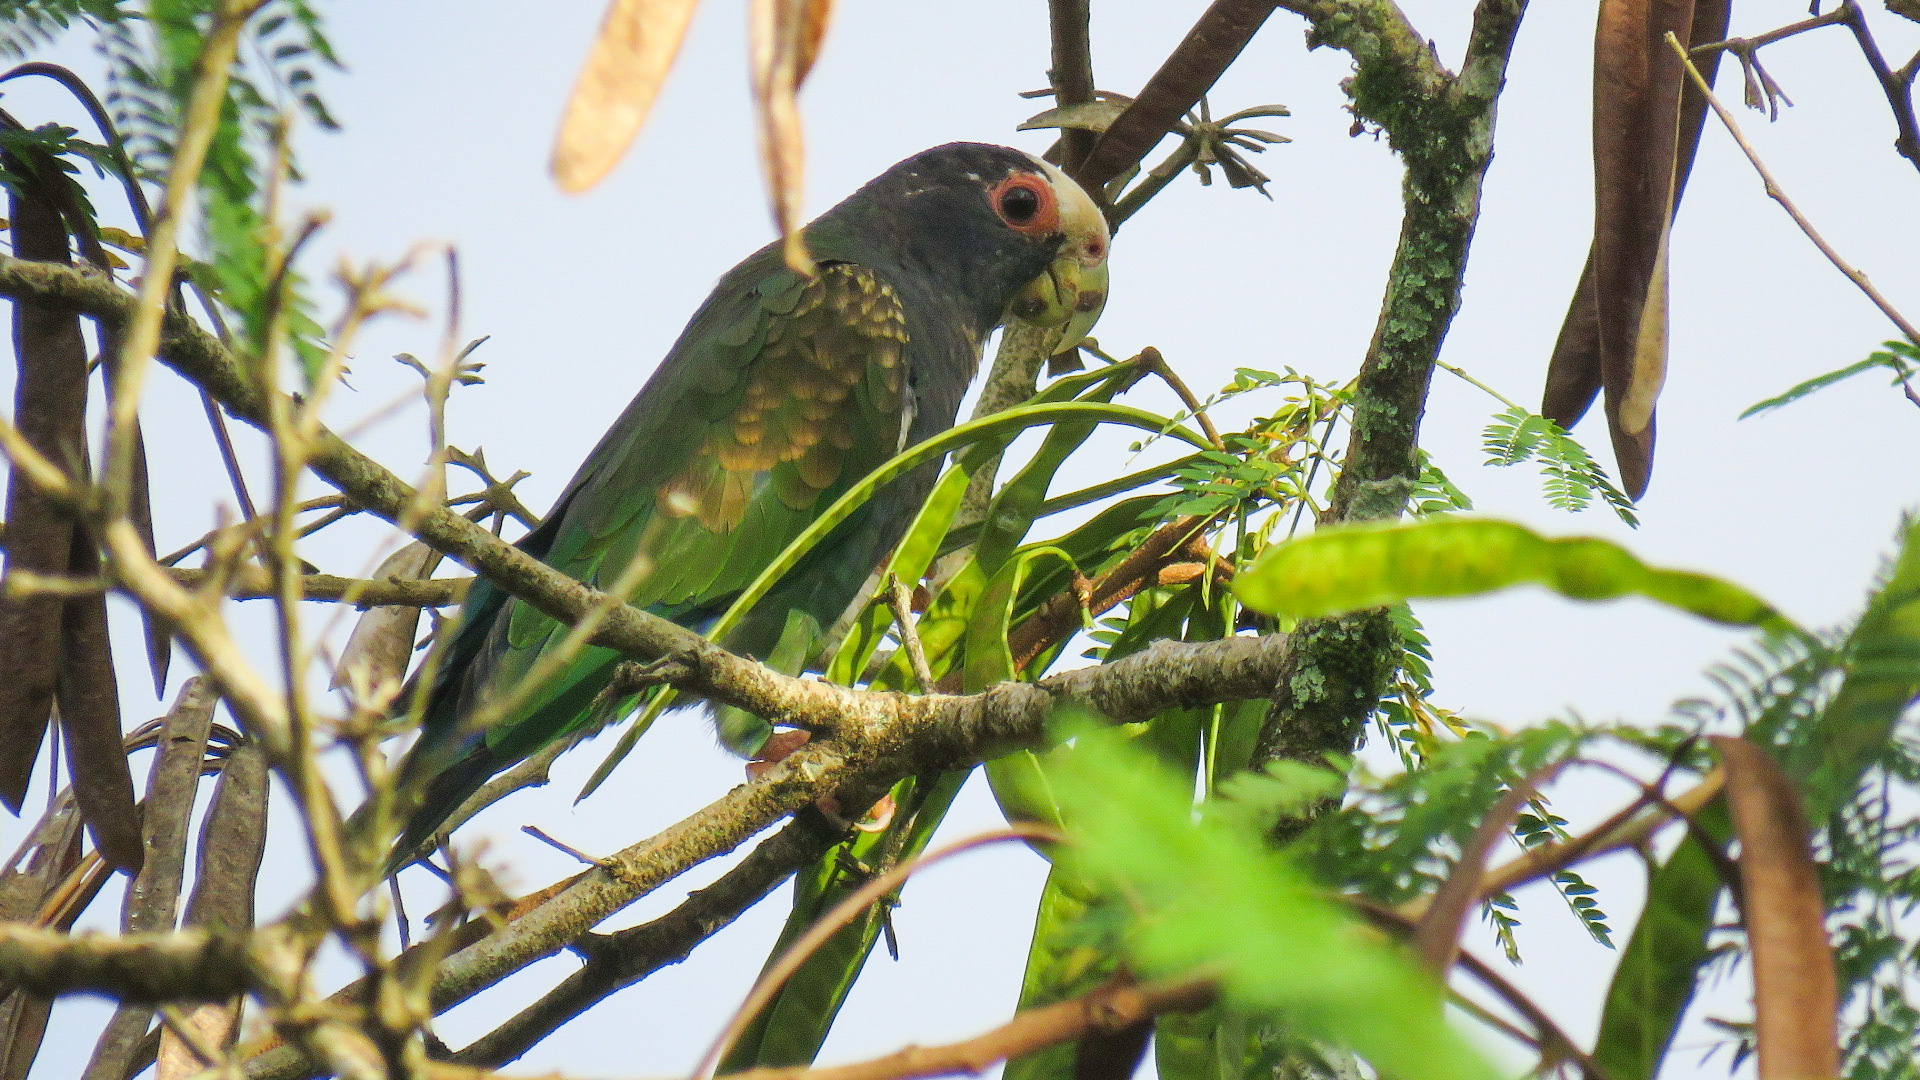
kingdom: Animalia
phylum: Chordata
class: Aves
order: Psittaciformes
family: Psittacidae
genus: Pionus
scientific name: Pionus senilis
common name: White-crowned parrot
